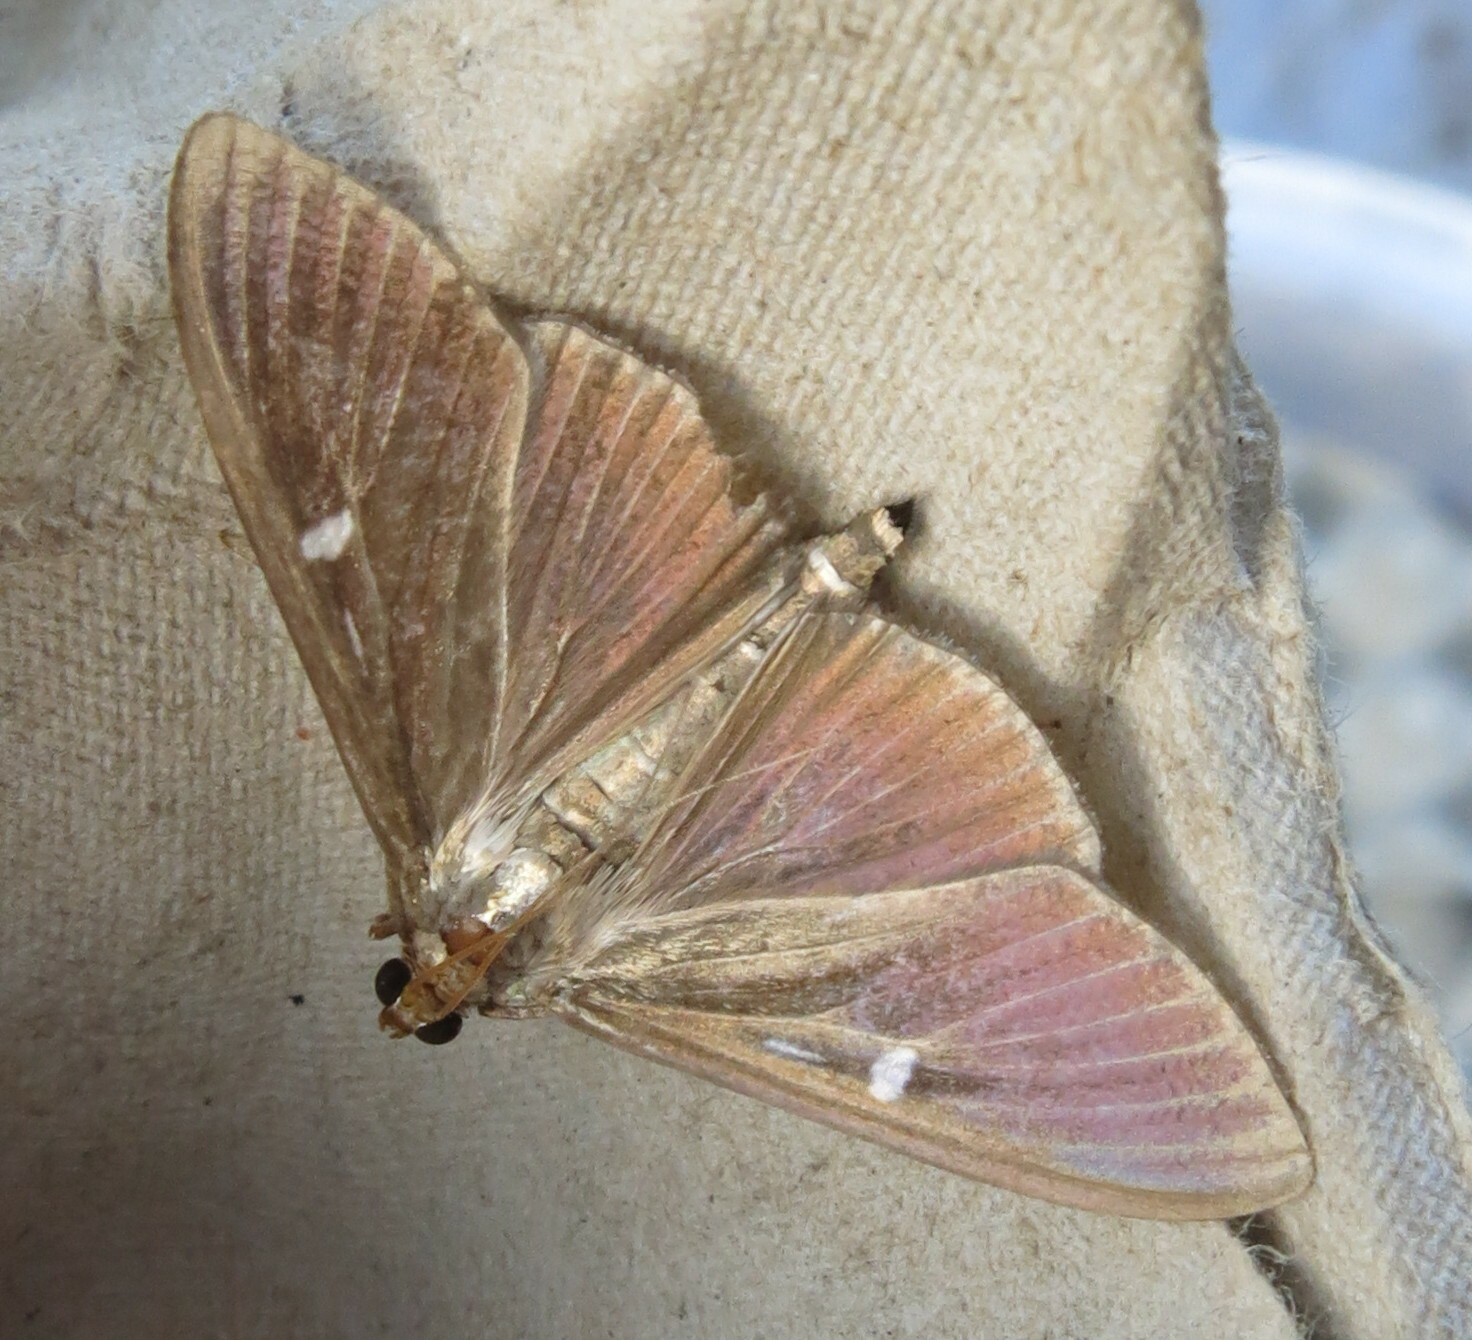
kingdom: Animalia
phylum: Arthropoda
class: Insecta
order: Lepidoptera
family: Crambidae
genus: Cydalima
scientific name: Cydalima perspectalis
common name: Box tree moth
